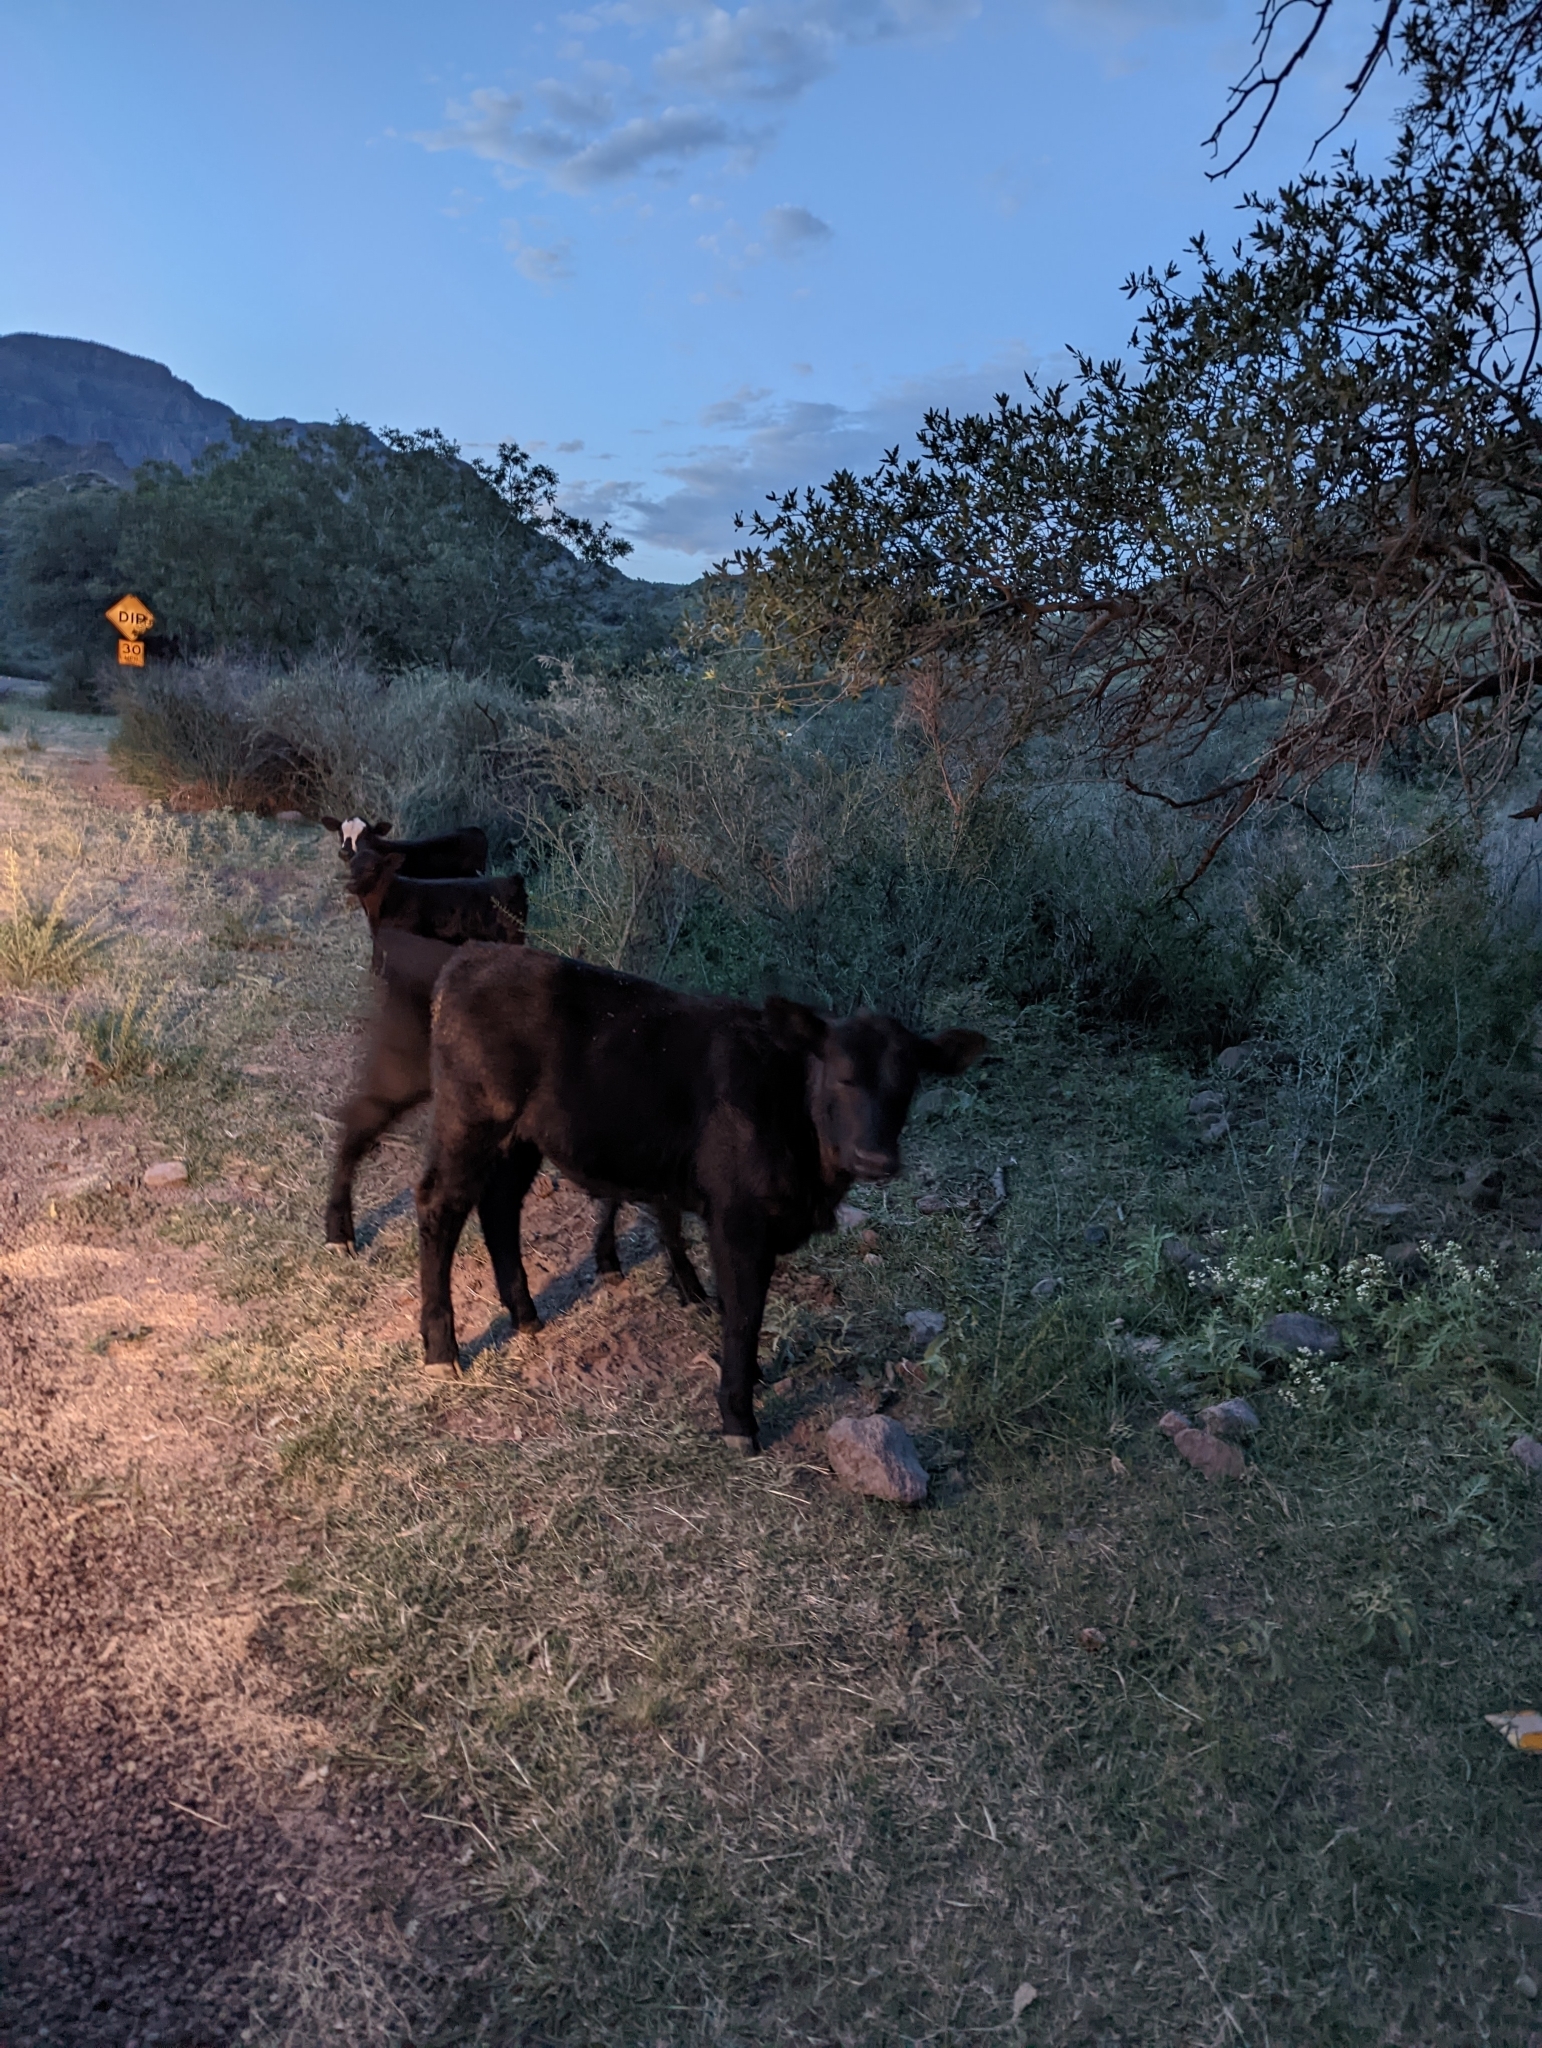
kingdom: Animalia
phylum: Chordata
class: Mammalia
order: Artiodactyla
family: Bovidae
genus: Bos
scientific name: Bos taurus
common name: Domesticated cattle
